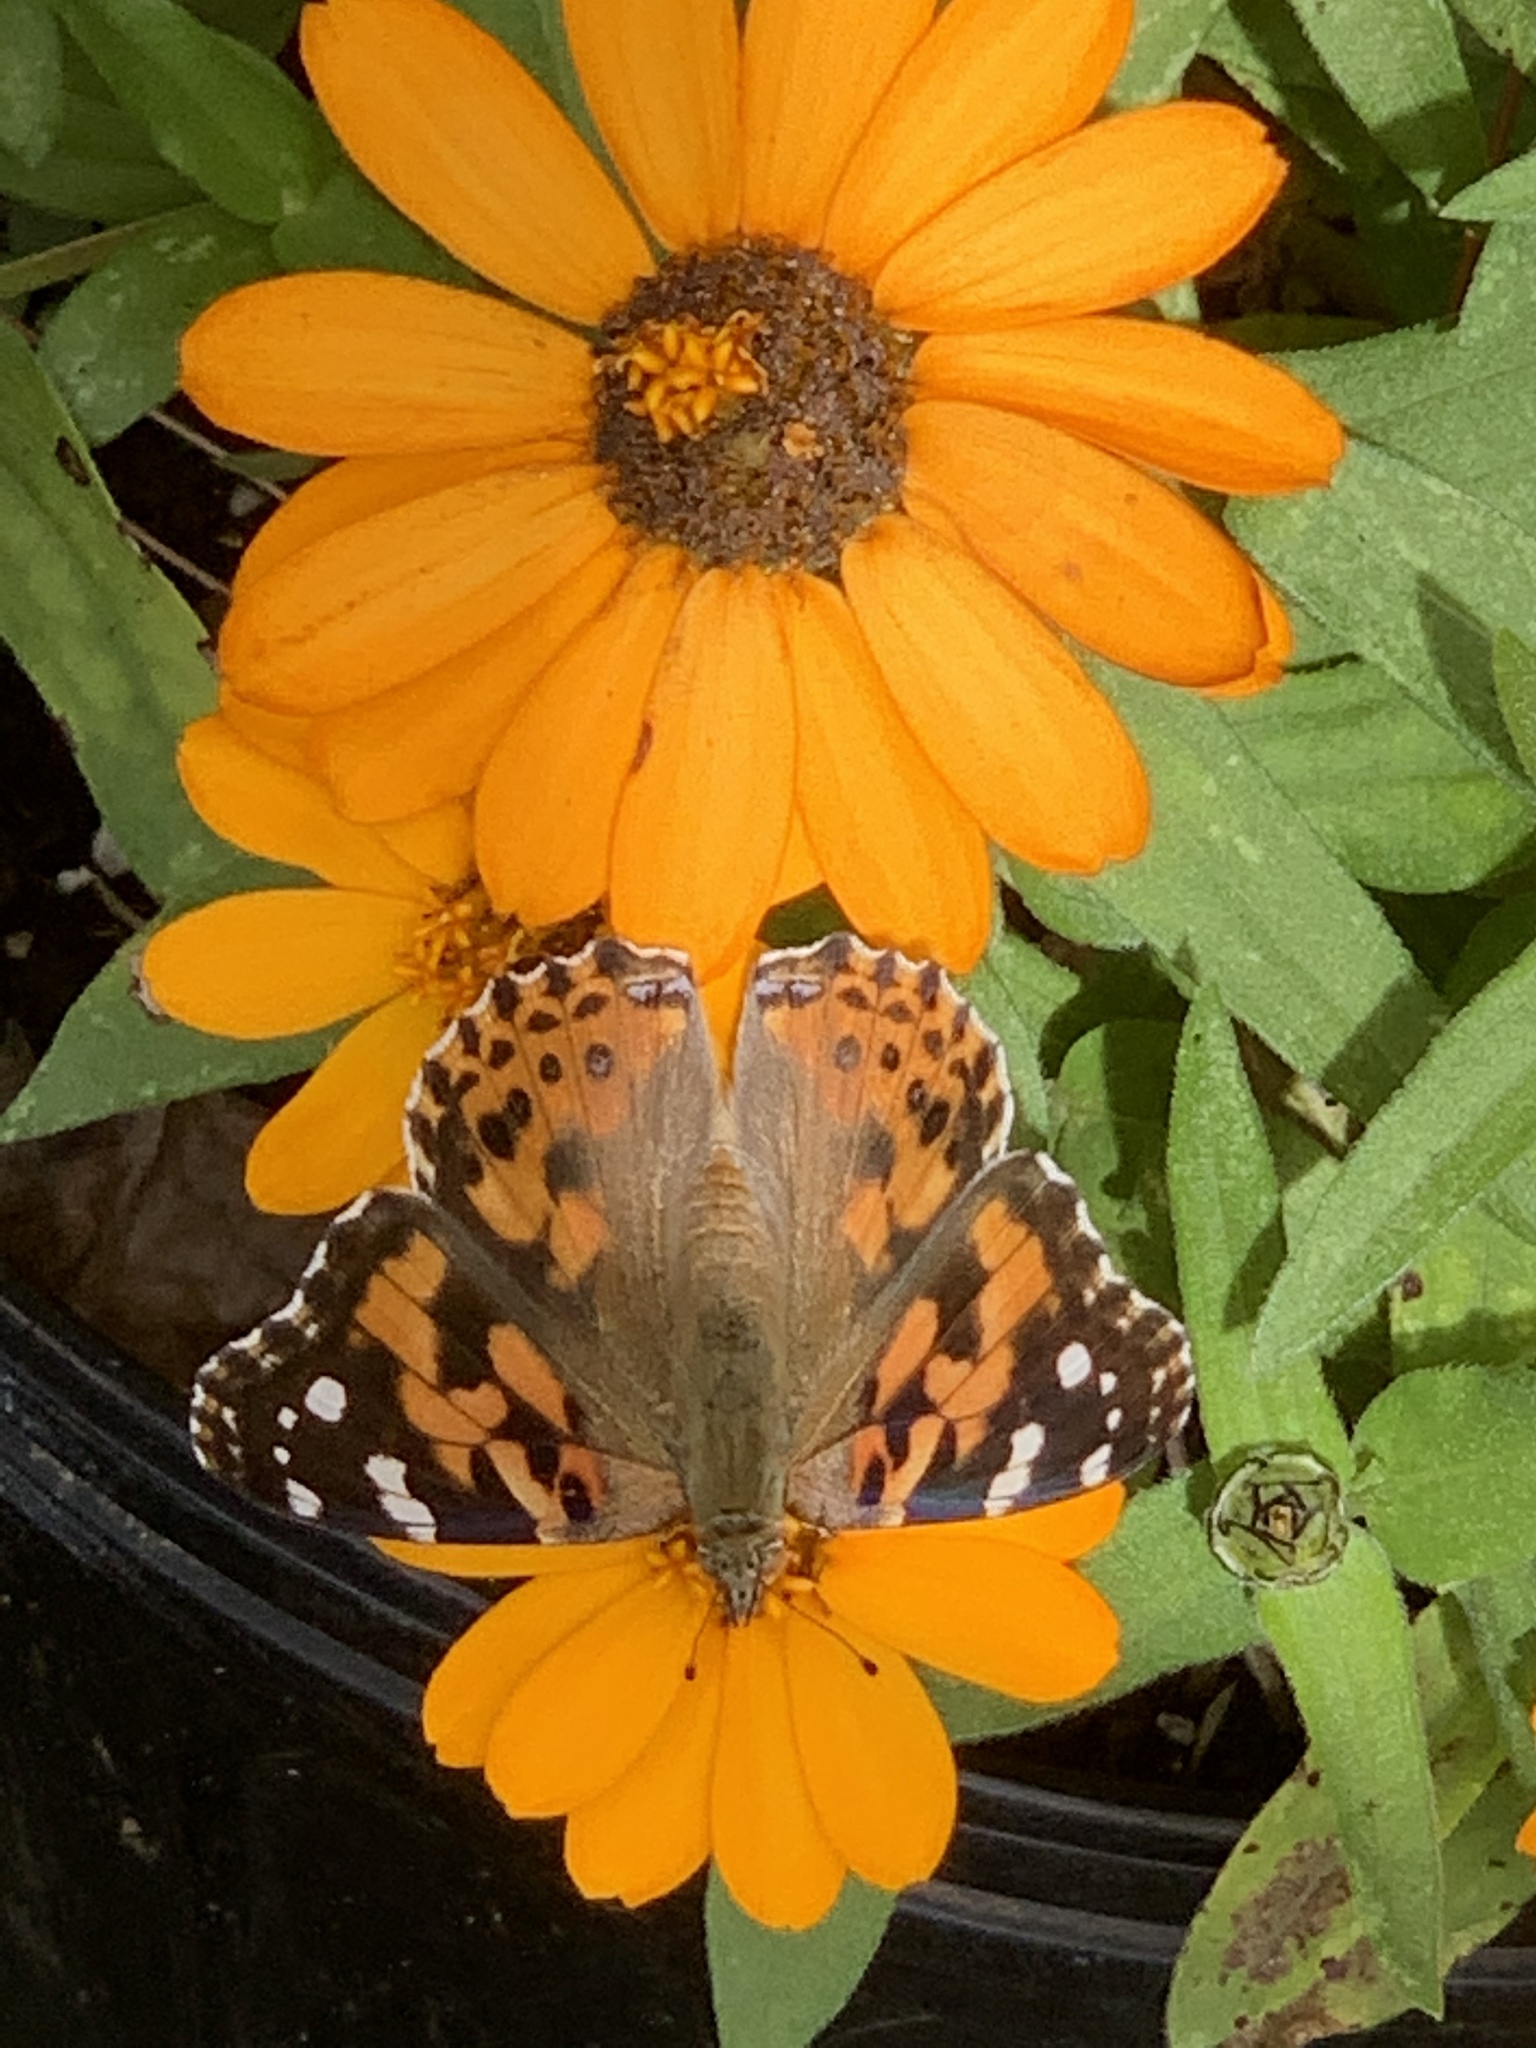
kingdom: Animalia
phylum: Arthropoda
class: Insecta
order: Lepidoptera
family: Nymphalidae
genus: Vanessa
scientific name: Vanessa cardui
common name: Painted lady
